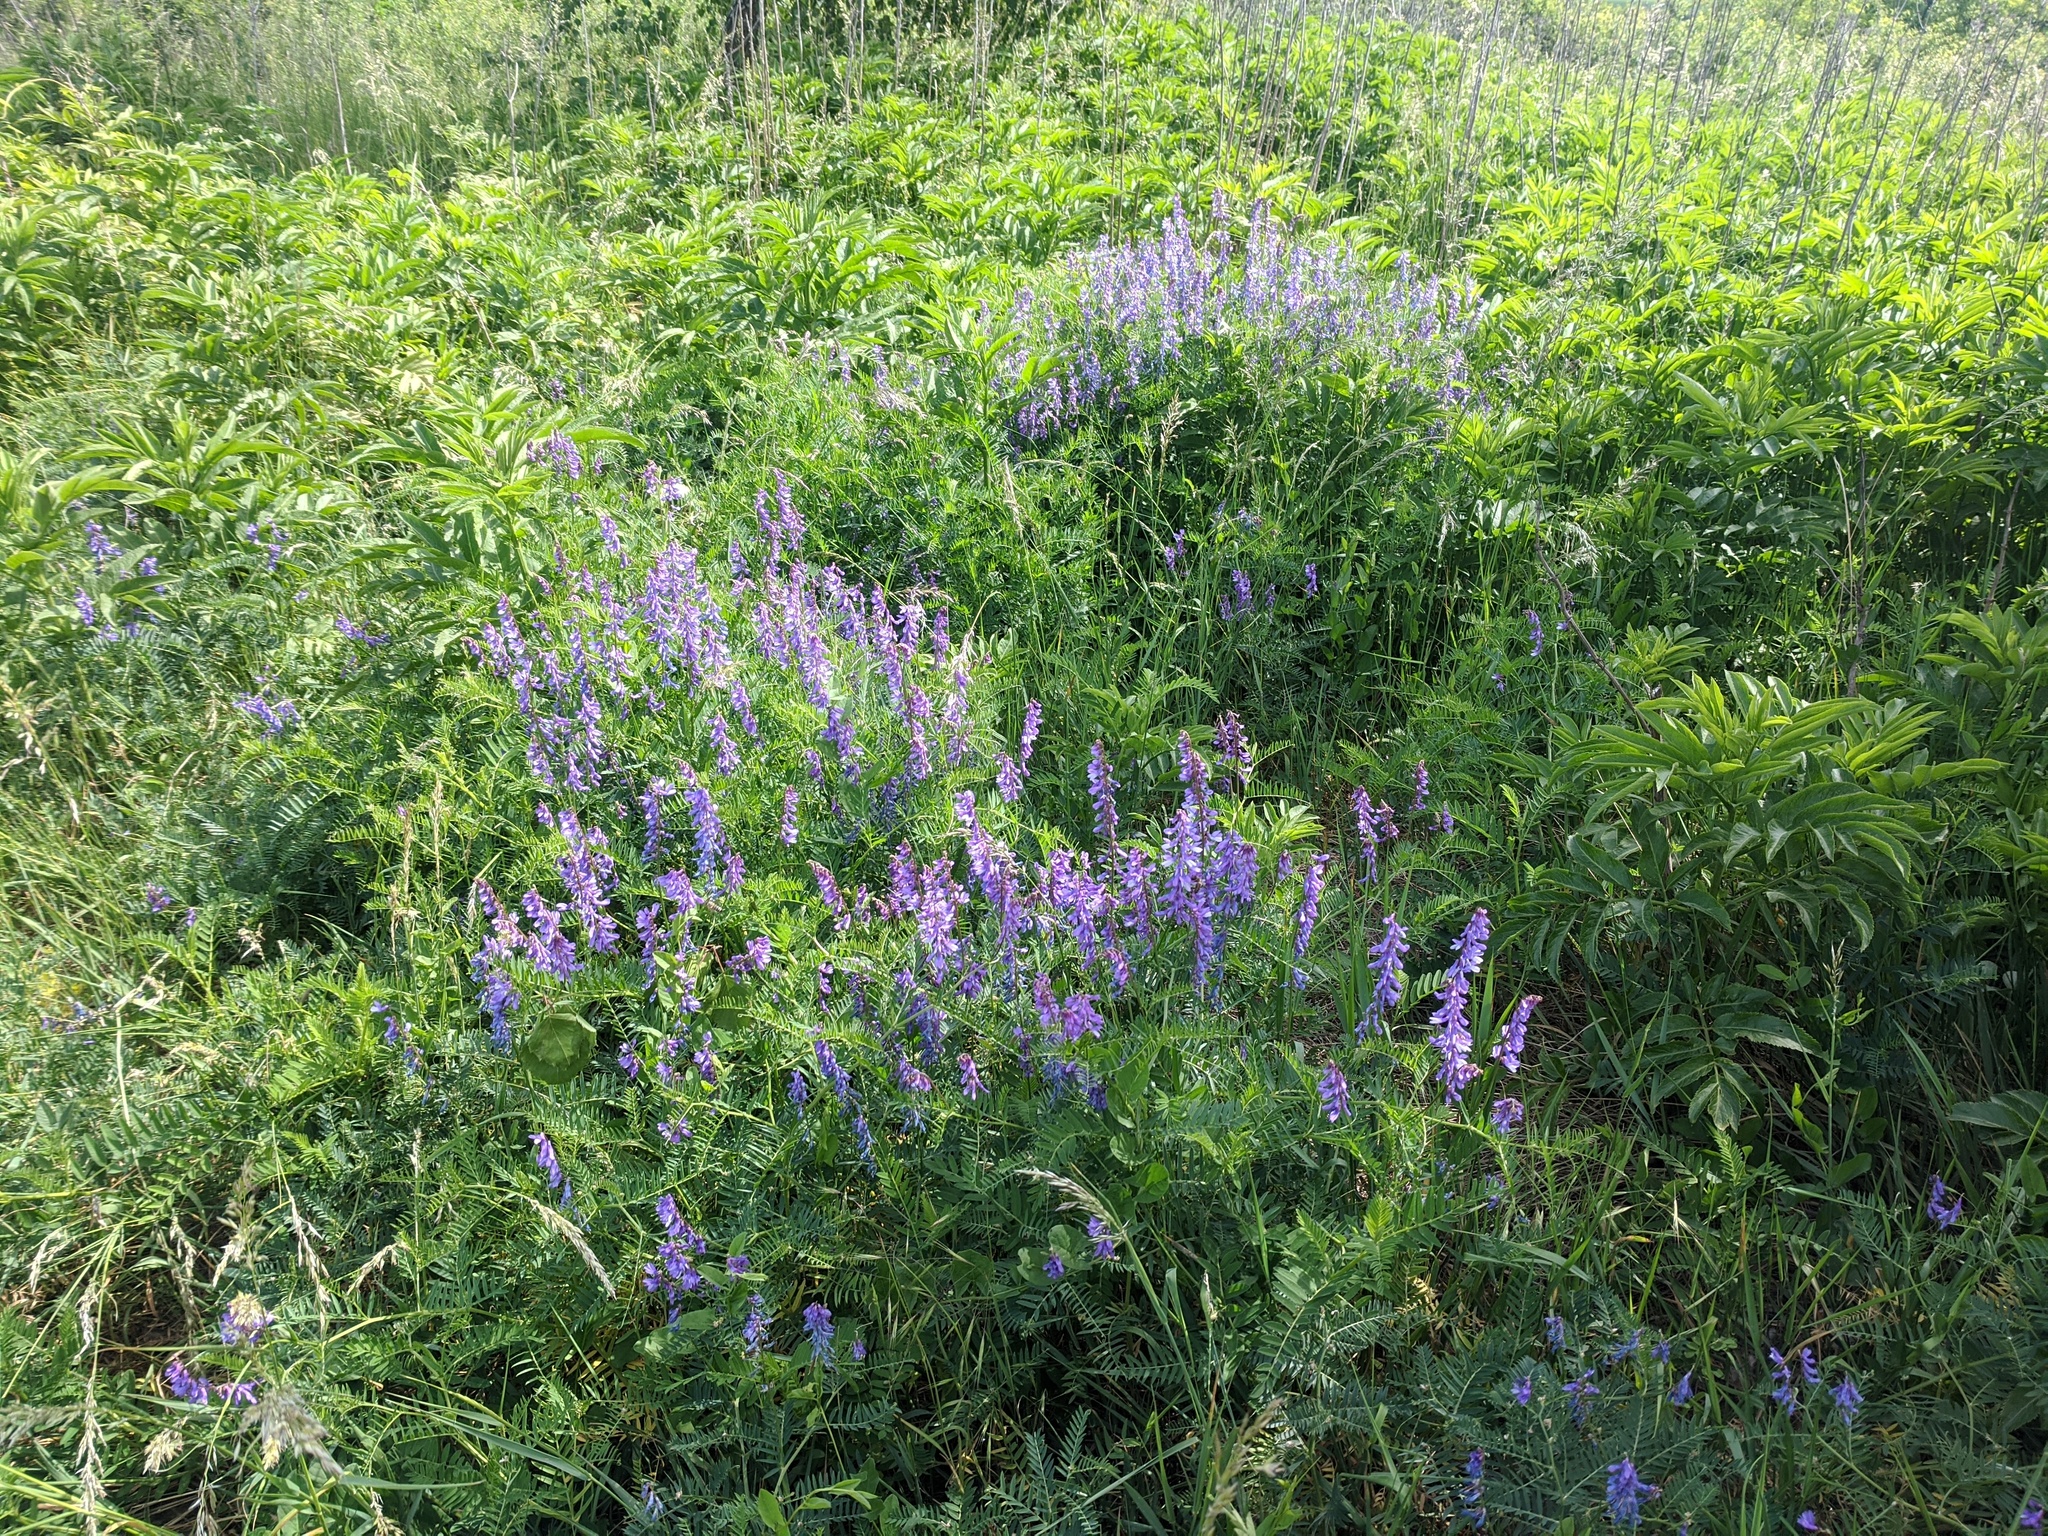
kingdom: Plantae
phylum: Tracheophyta
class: Magnoliopsida
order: Fabales
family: Fabaceae
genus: Vicia
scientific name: Vicia cracca
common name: Bird vetch
